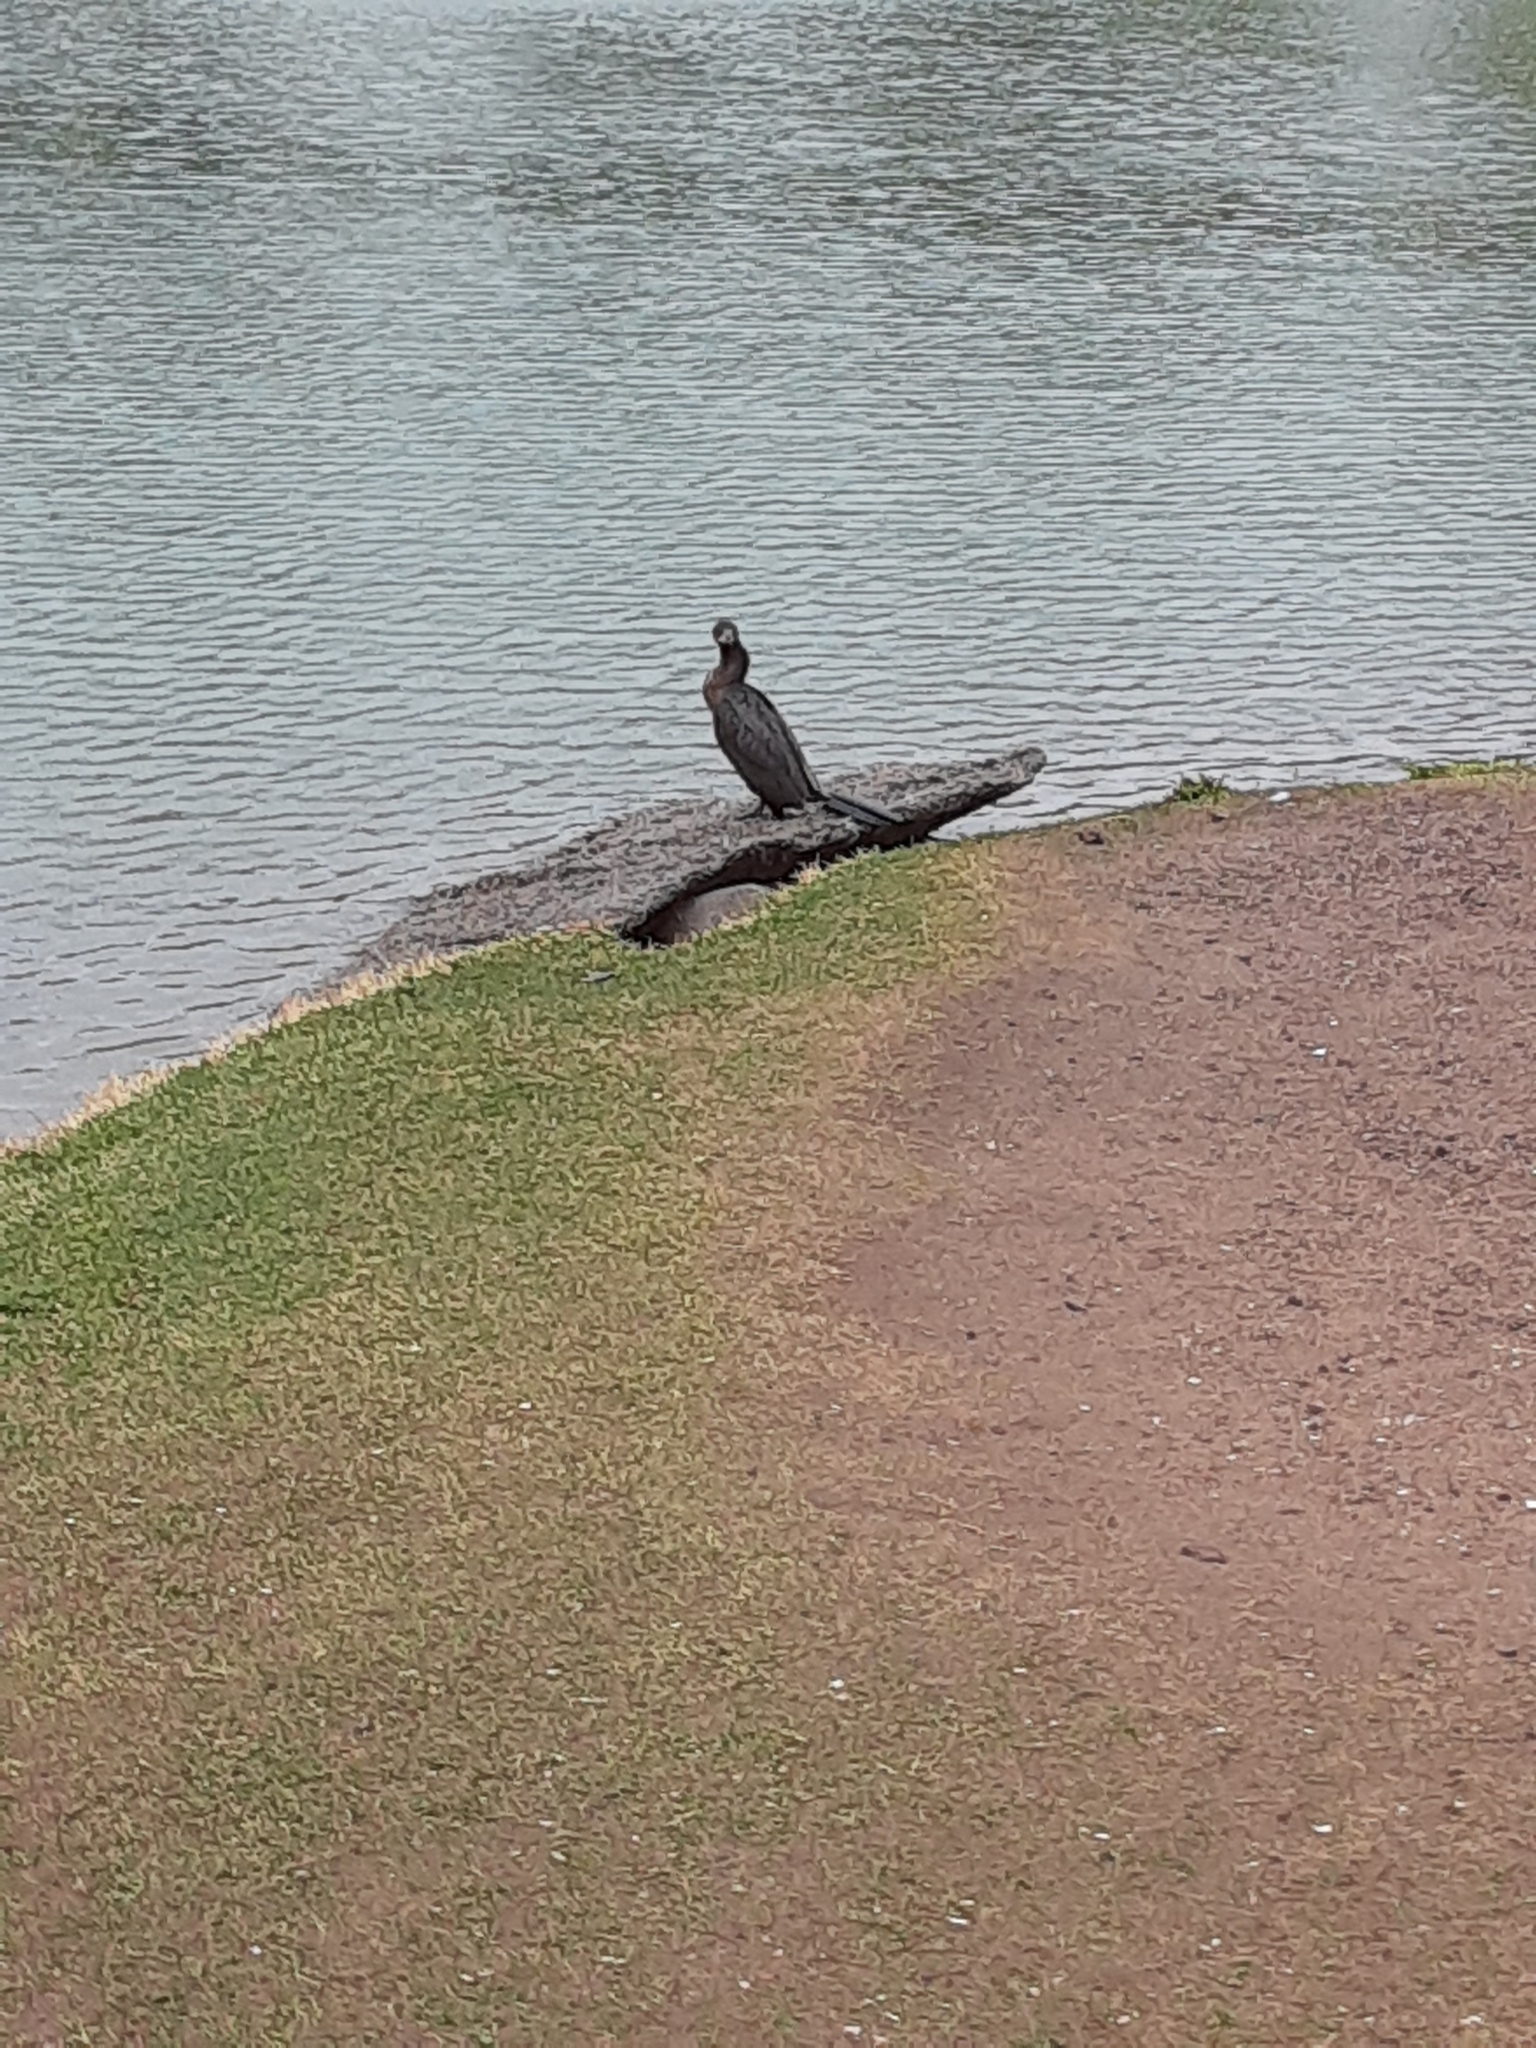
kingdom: Animalia
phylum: Chordata
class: Aves
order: Suliformes
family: Phalacrocoracidae
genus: Phalacrocorax
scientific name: Phalacrocorax brasilianus
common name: Neotropic cormorant
